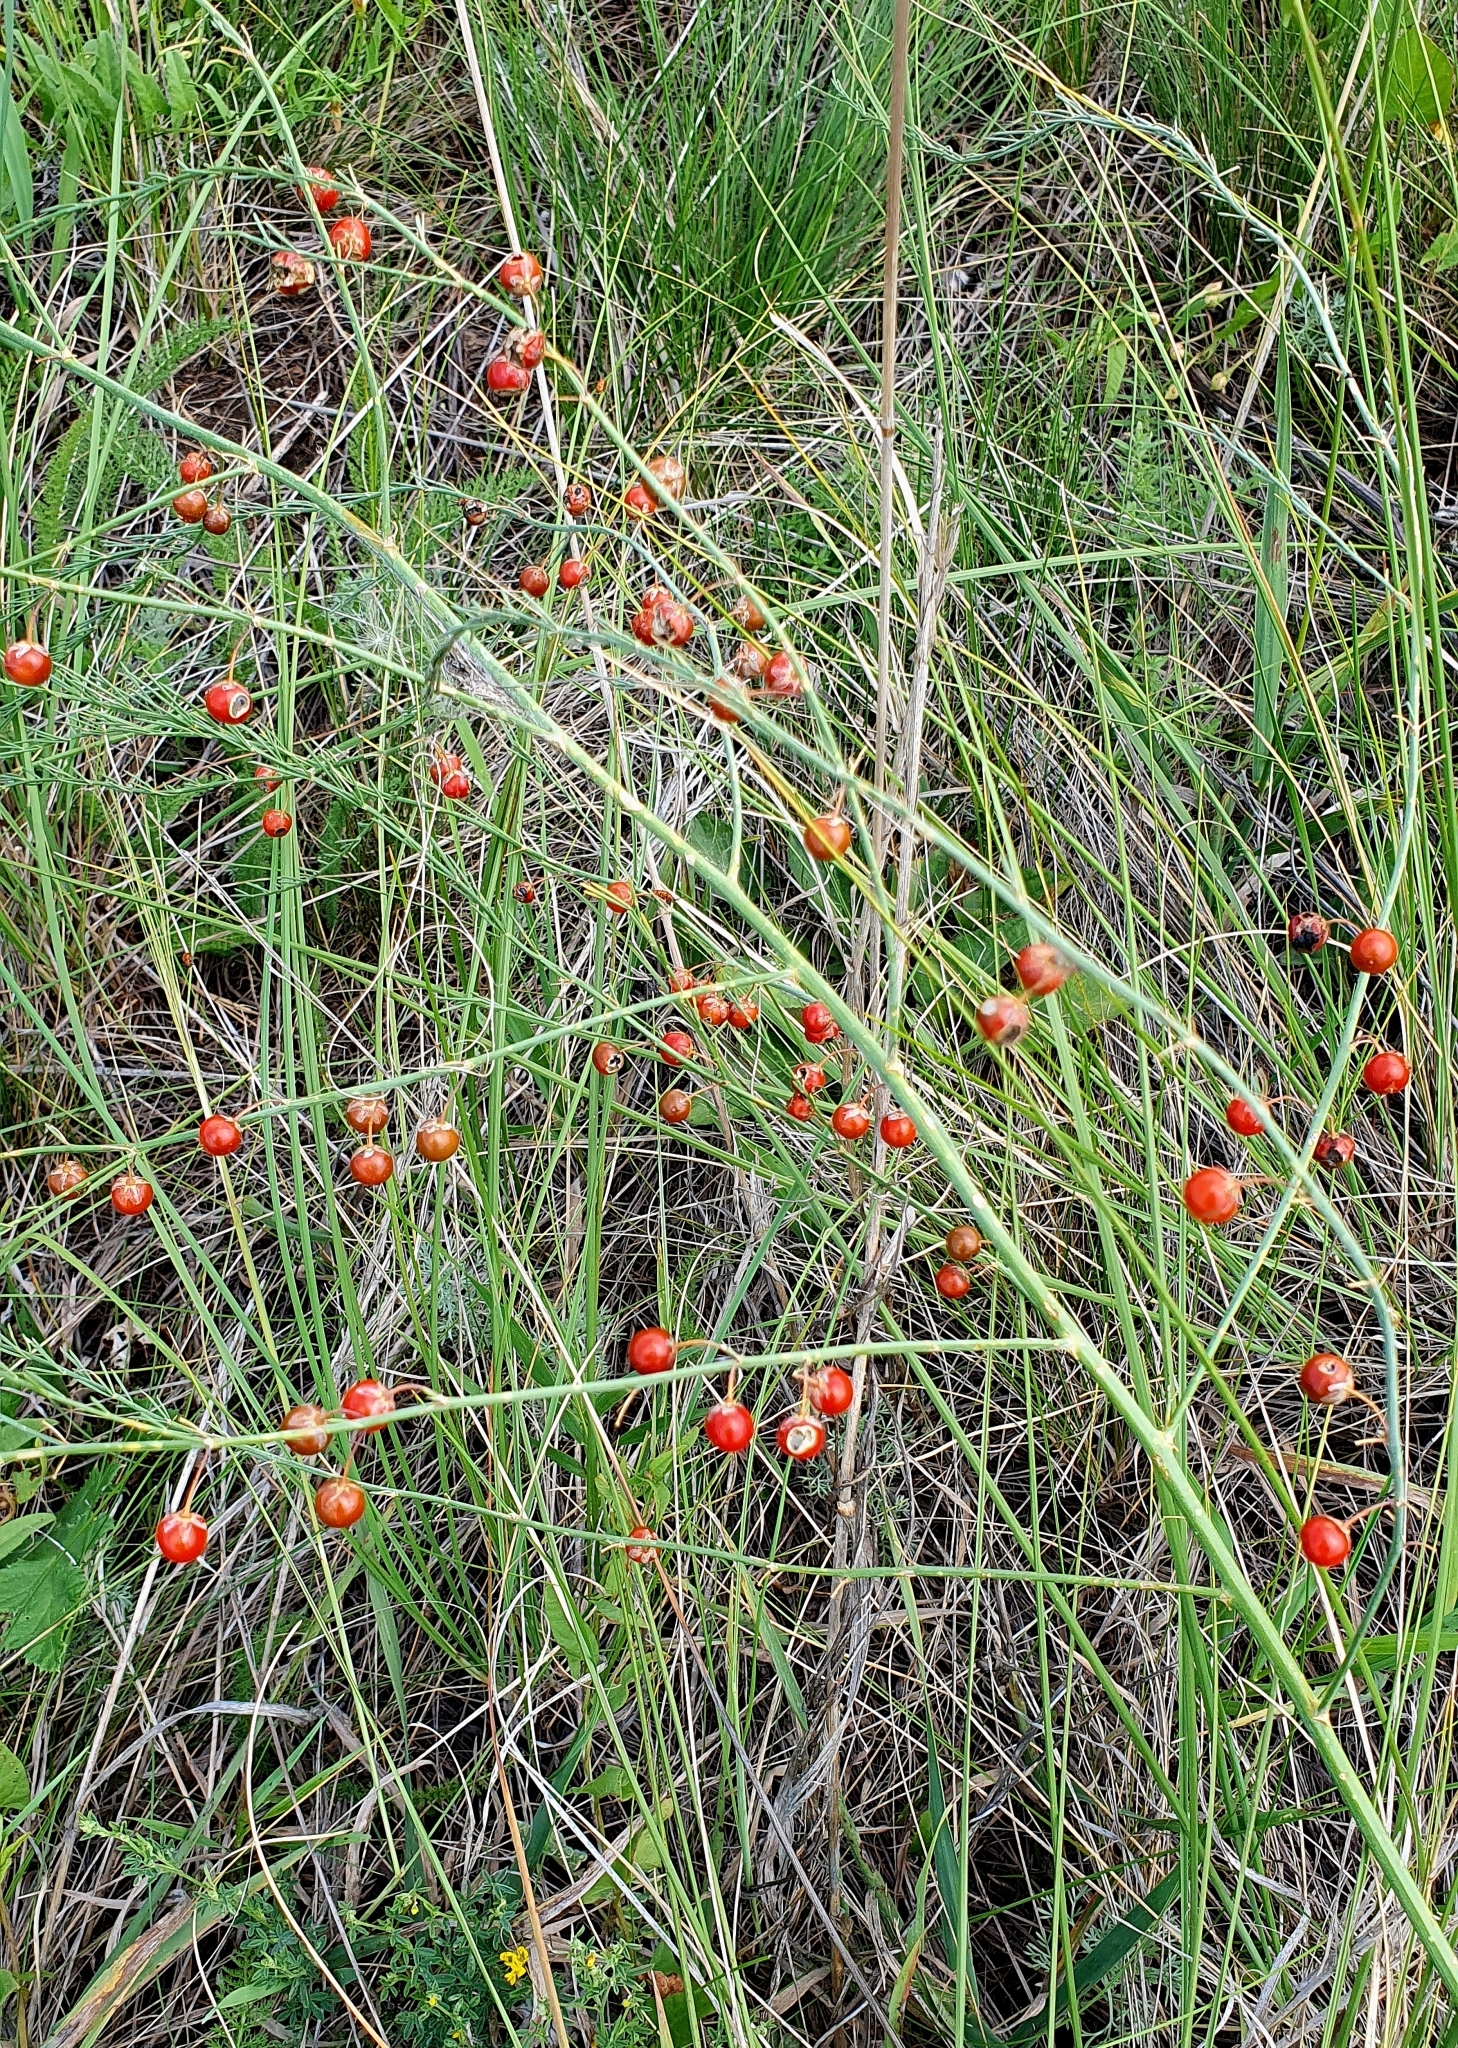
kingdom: Plantae
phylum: Tracheophyta
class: Liliopsida
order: Asparagales
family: Asparagaceae
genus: Asparagus
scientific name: Asparagus officinalis
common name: Garden asparagus
